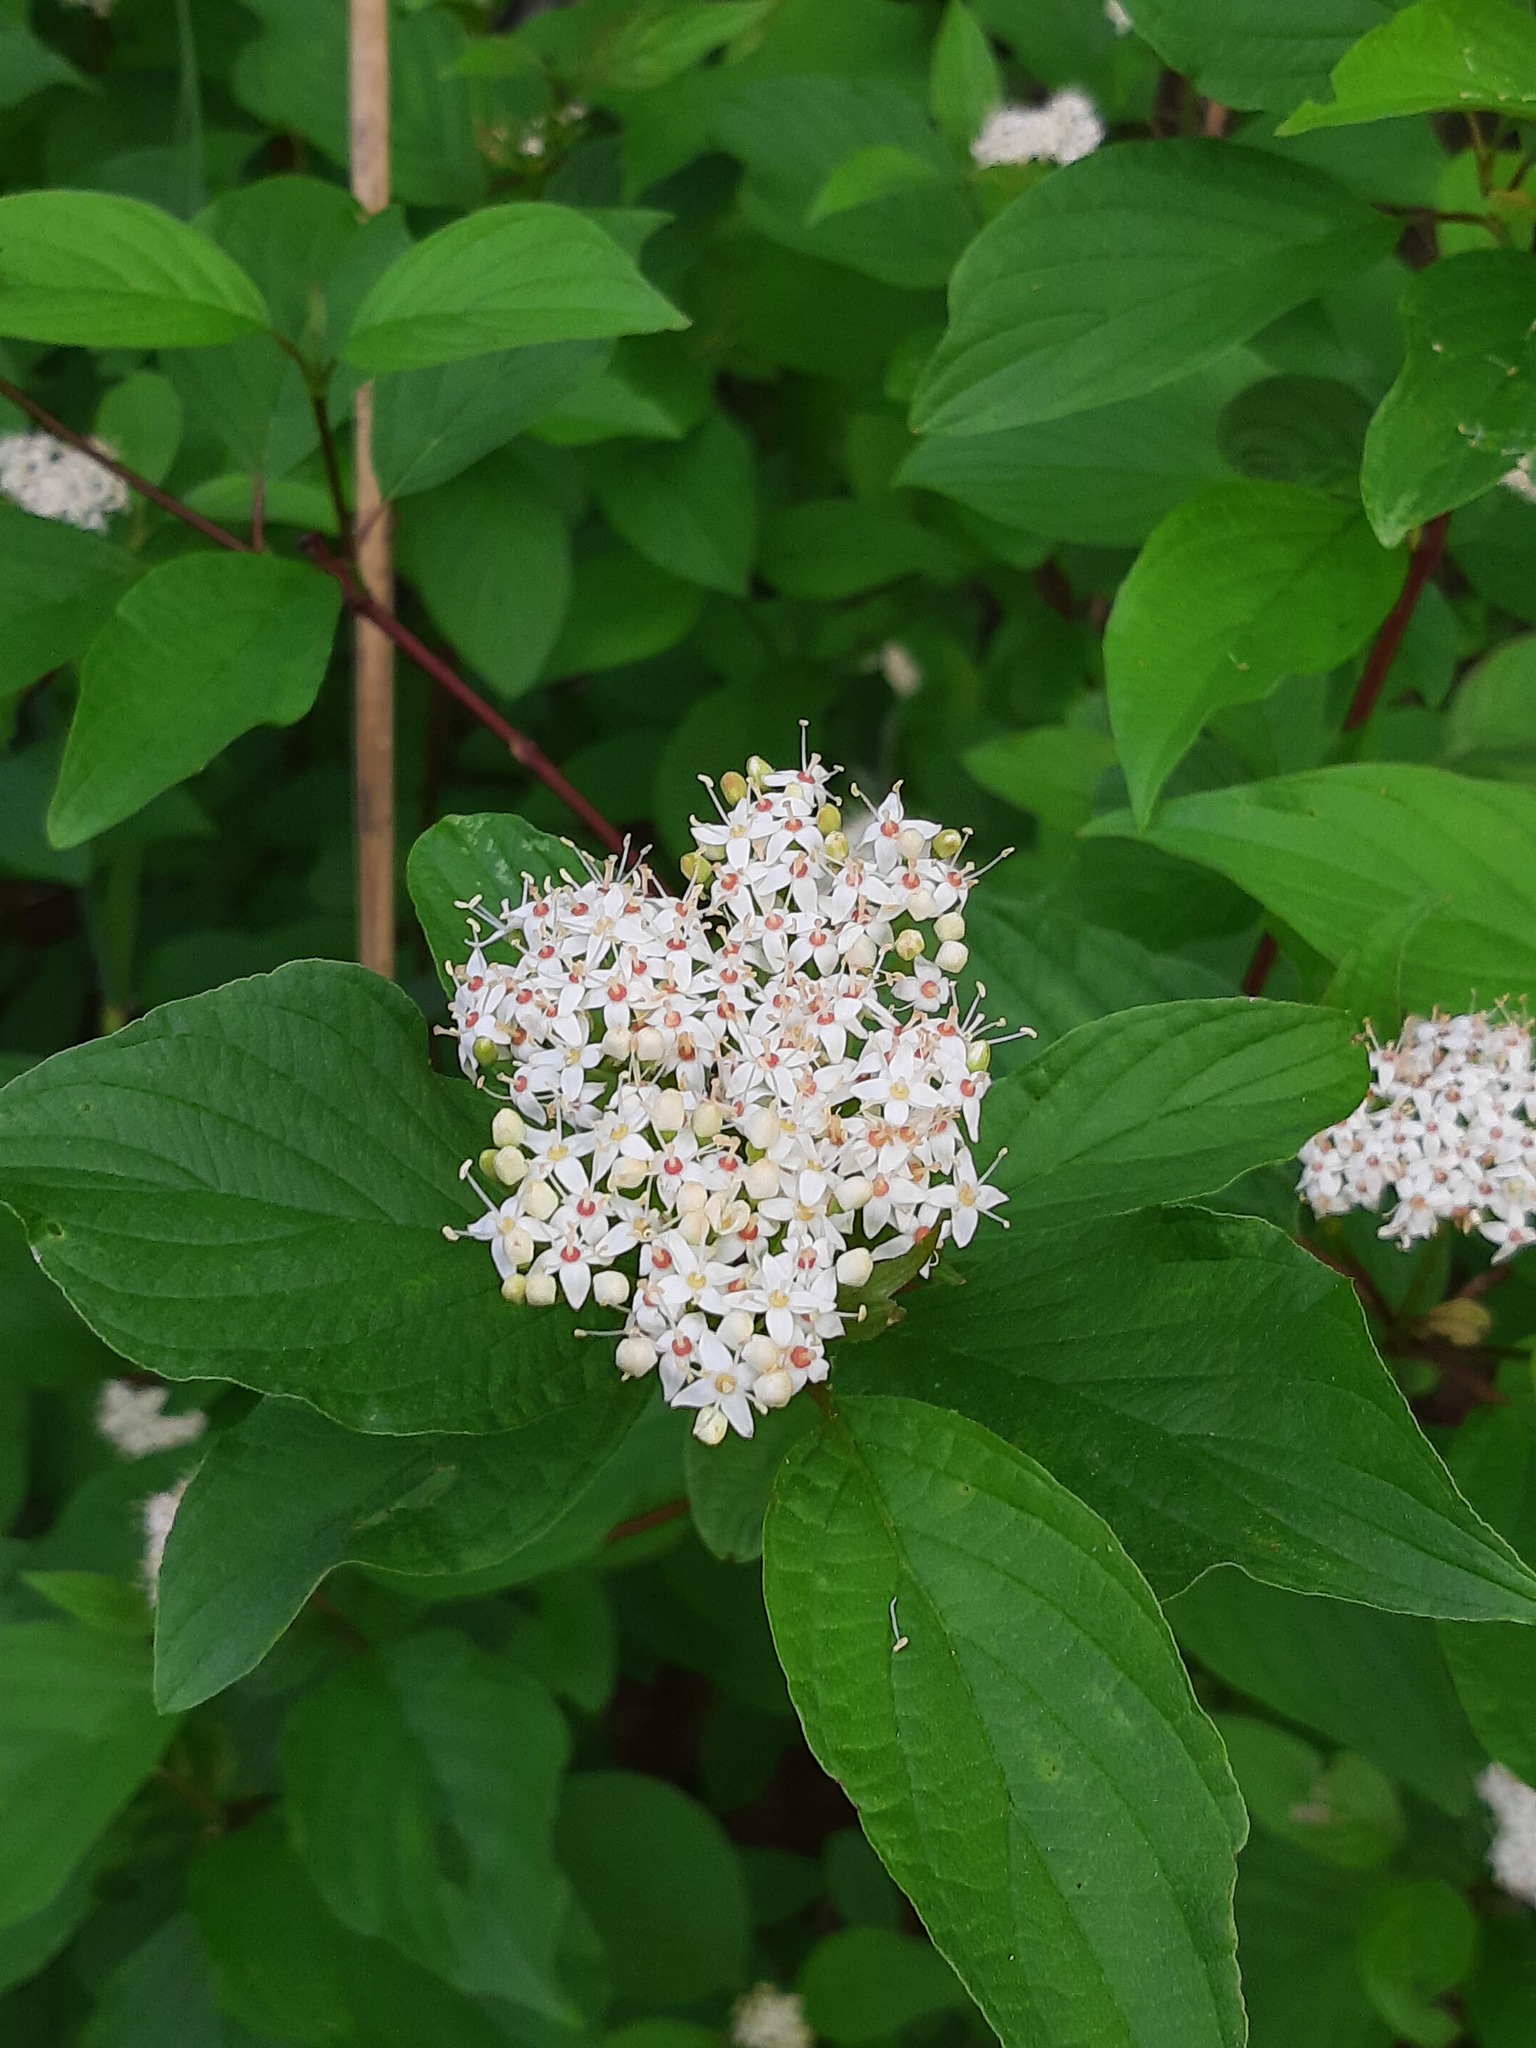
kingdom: Plantae
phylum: Tracheophyta
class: Magnoliopsida
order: Cornales
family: Cornaceae
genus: Cornus
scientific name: Cornus sericea
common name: Red-osier dogwood
